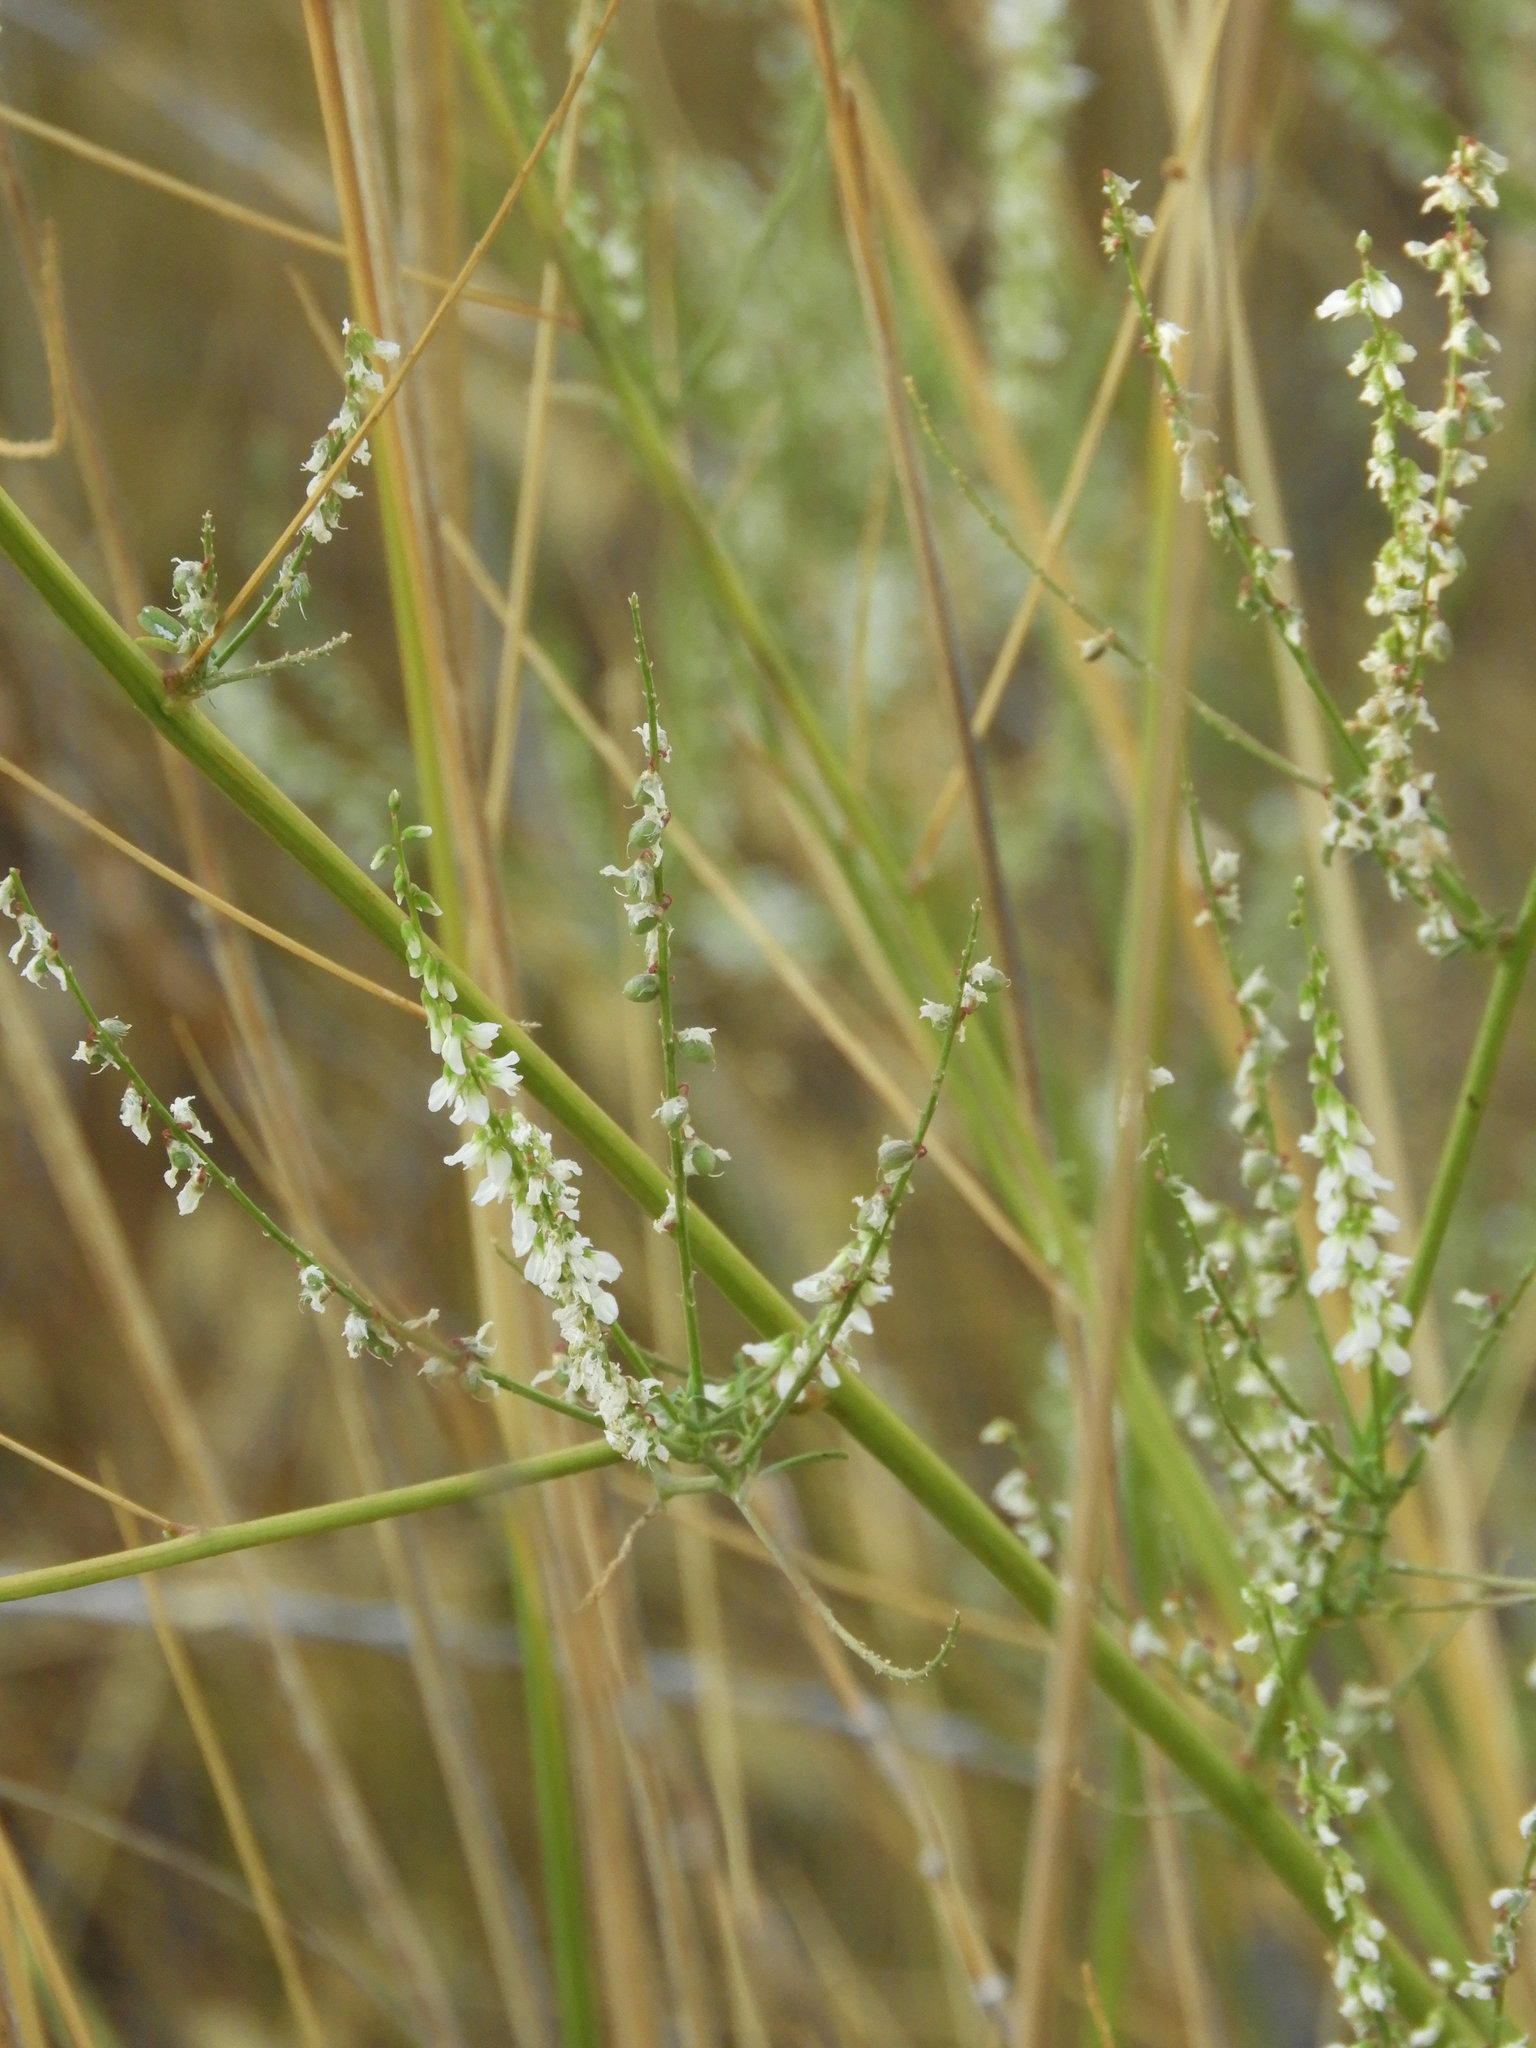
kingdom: Plantae
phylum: Tracheophyta
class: Magnoliopsida
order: Fabales
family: Fabaceae
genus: Melilotus
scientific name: Melilotus albus
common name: White melilot
